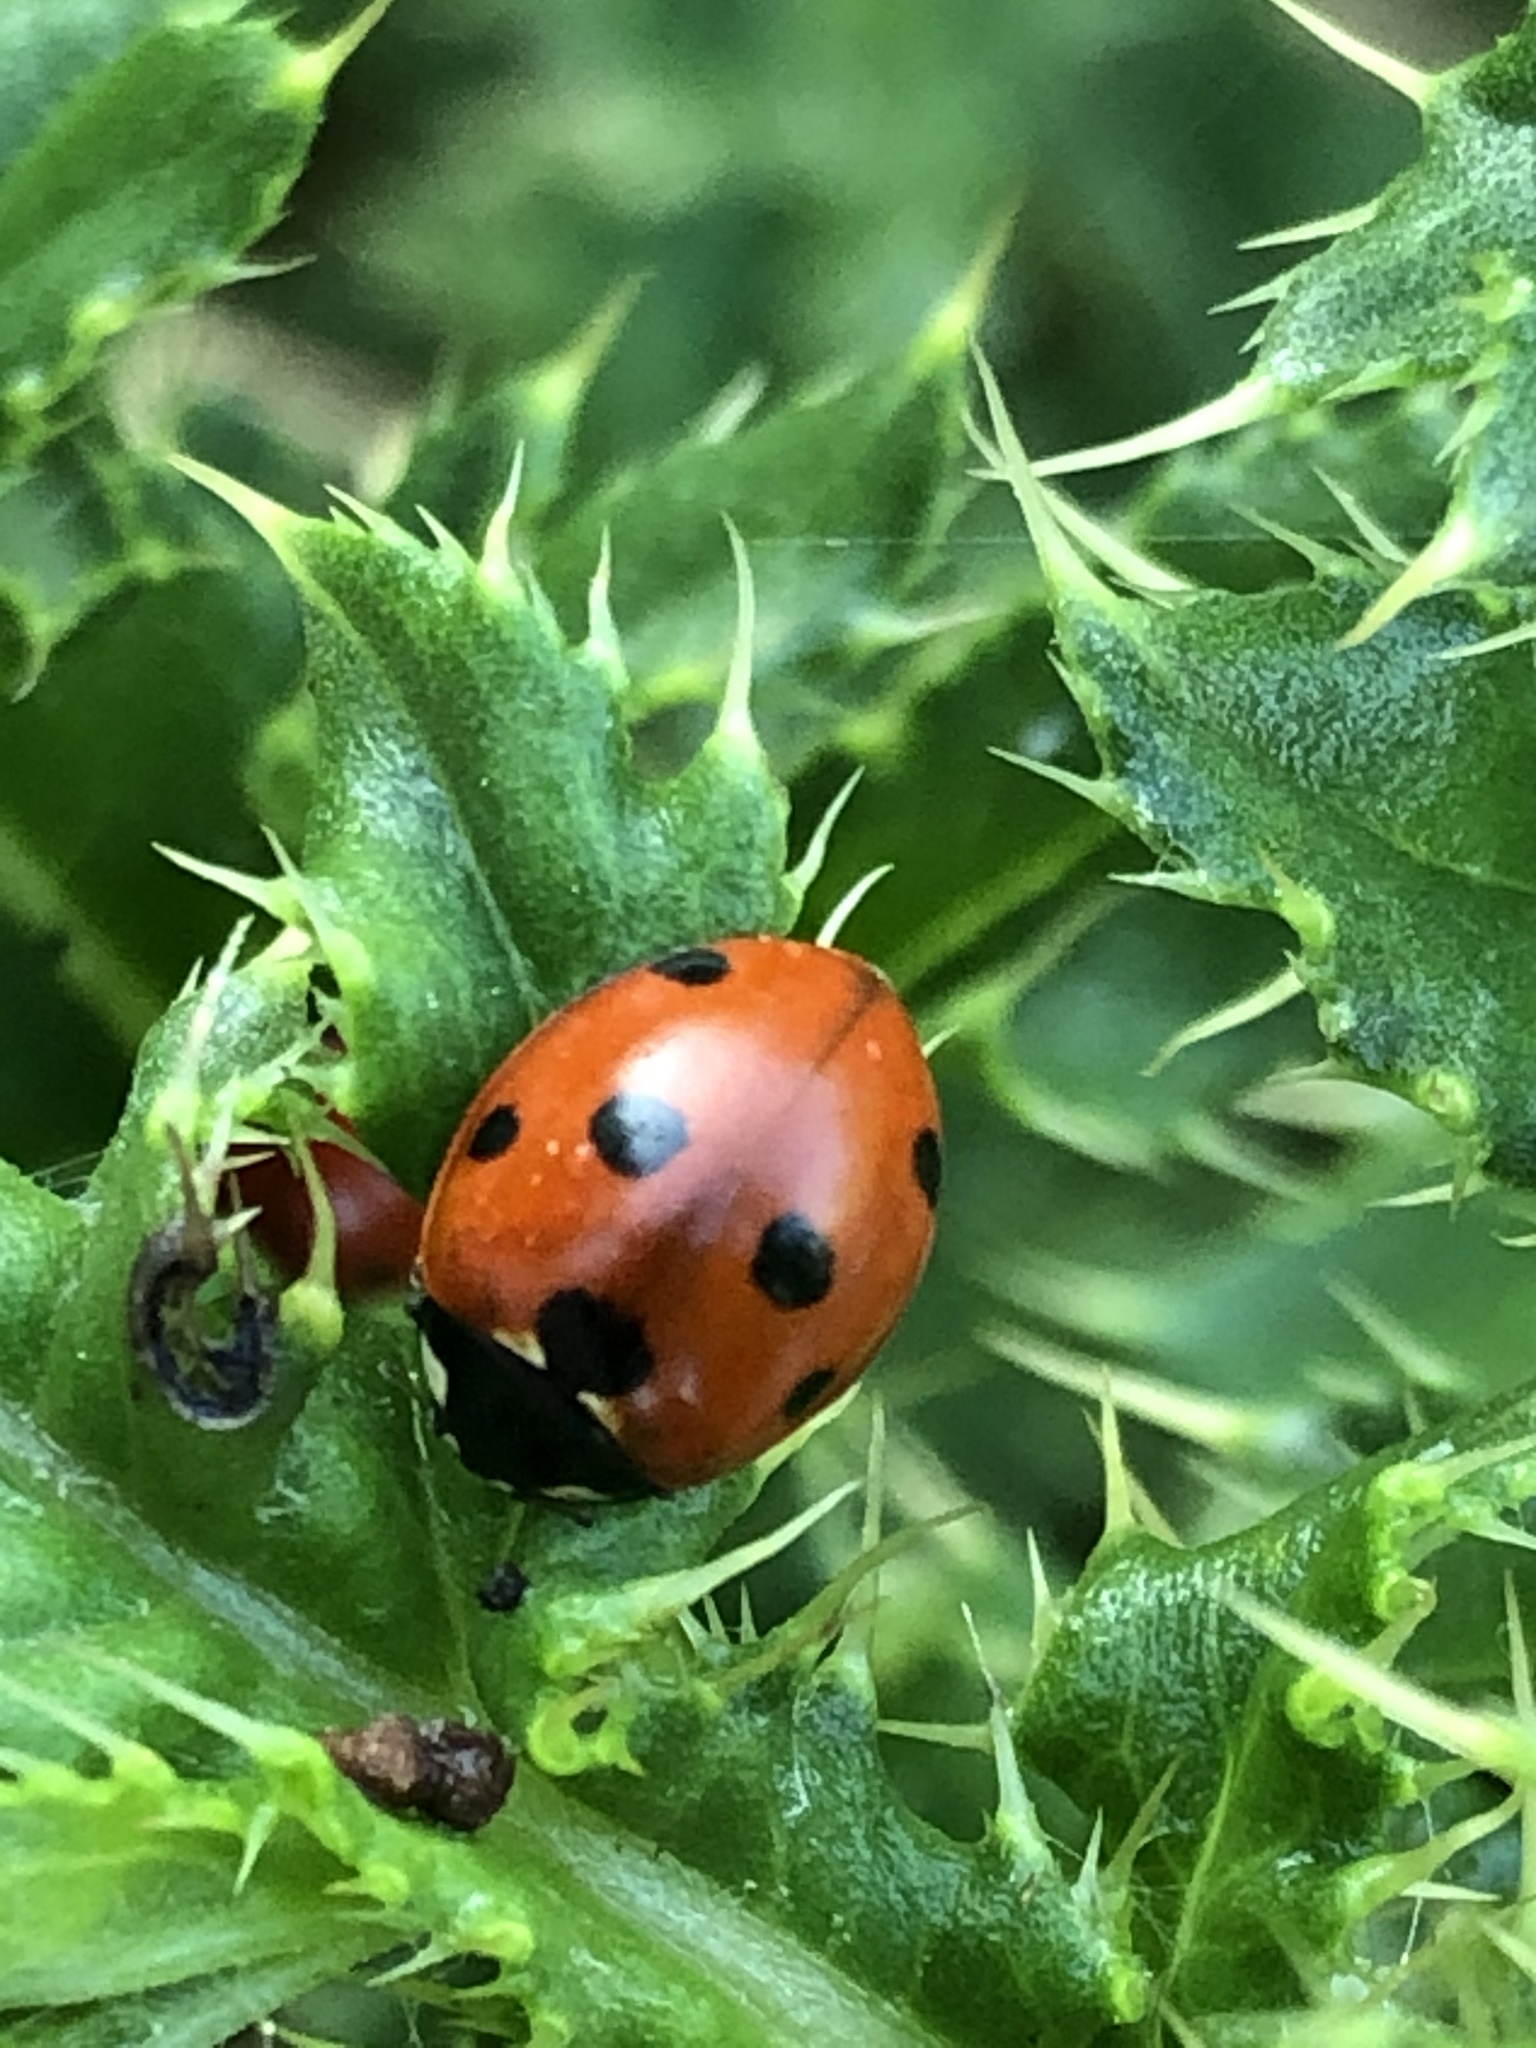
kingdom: Animalia
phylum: Arthropoda
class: Insecta
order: Coleoptera
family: Coccinellidae
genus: Coccinella
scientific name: Coccinella septempunctata
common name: Sevenspotted lady beetle
